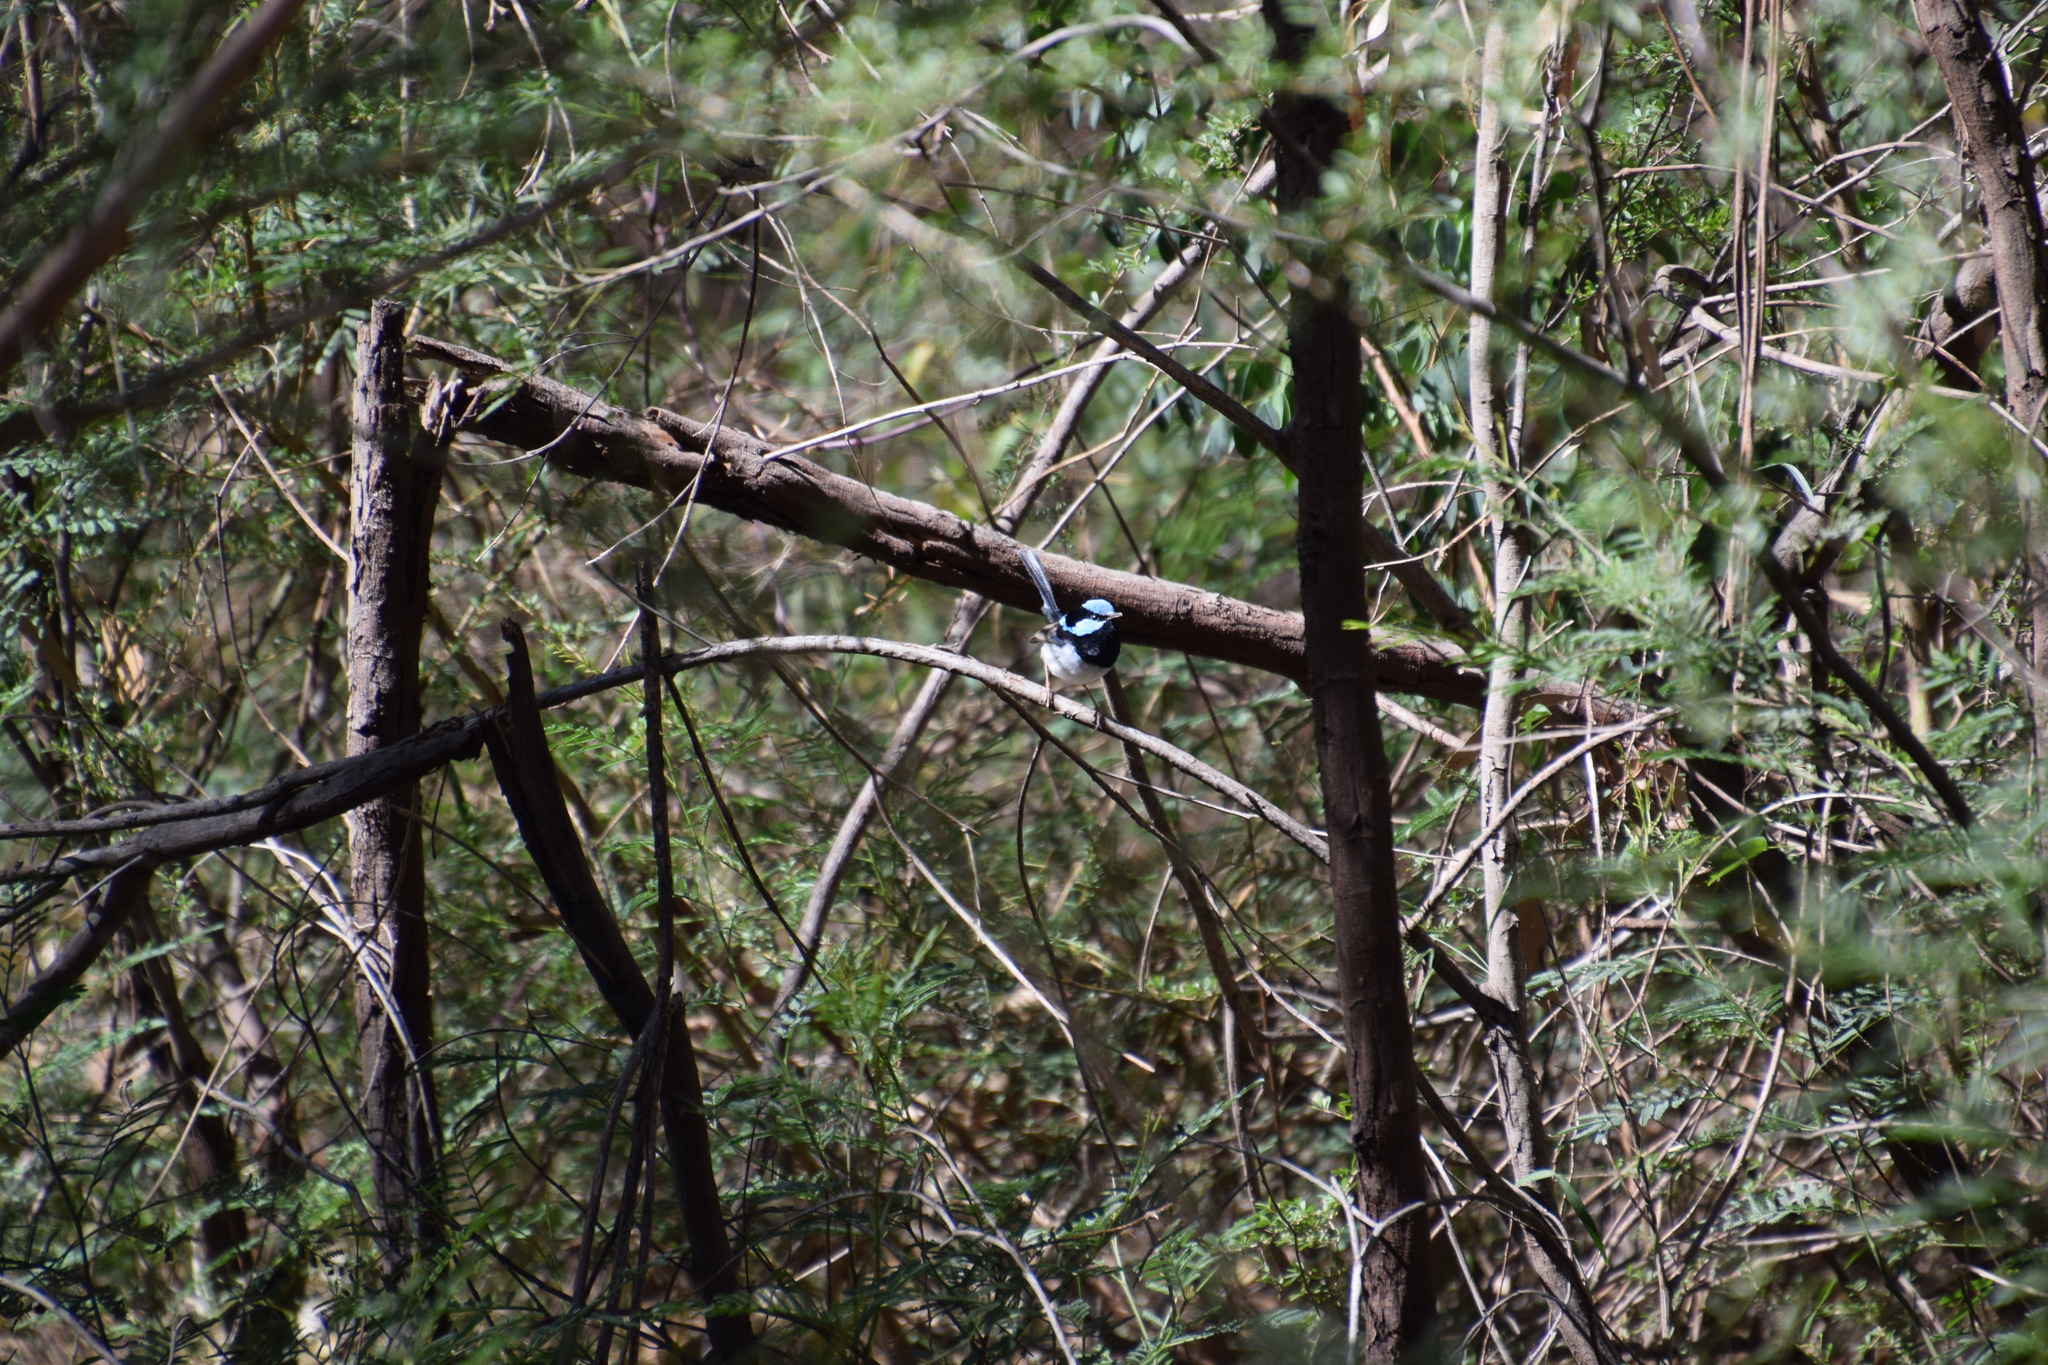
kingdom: Animalia
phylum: Chordata
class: Aves
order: Passeriformes
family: Maluridae
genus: Malurus
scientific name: Malurus cyaneus
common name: Superb fairywren
